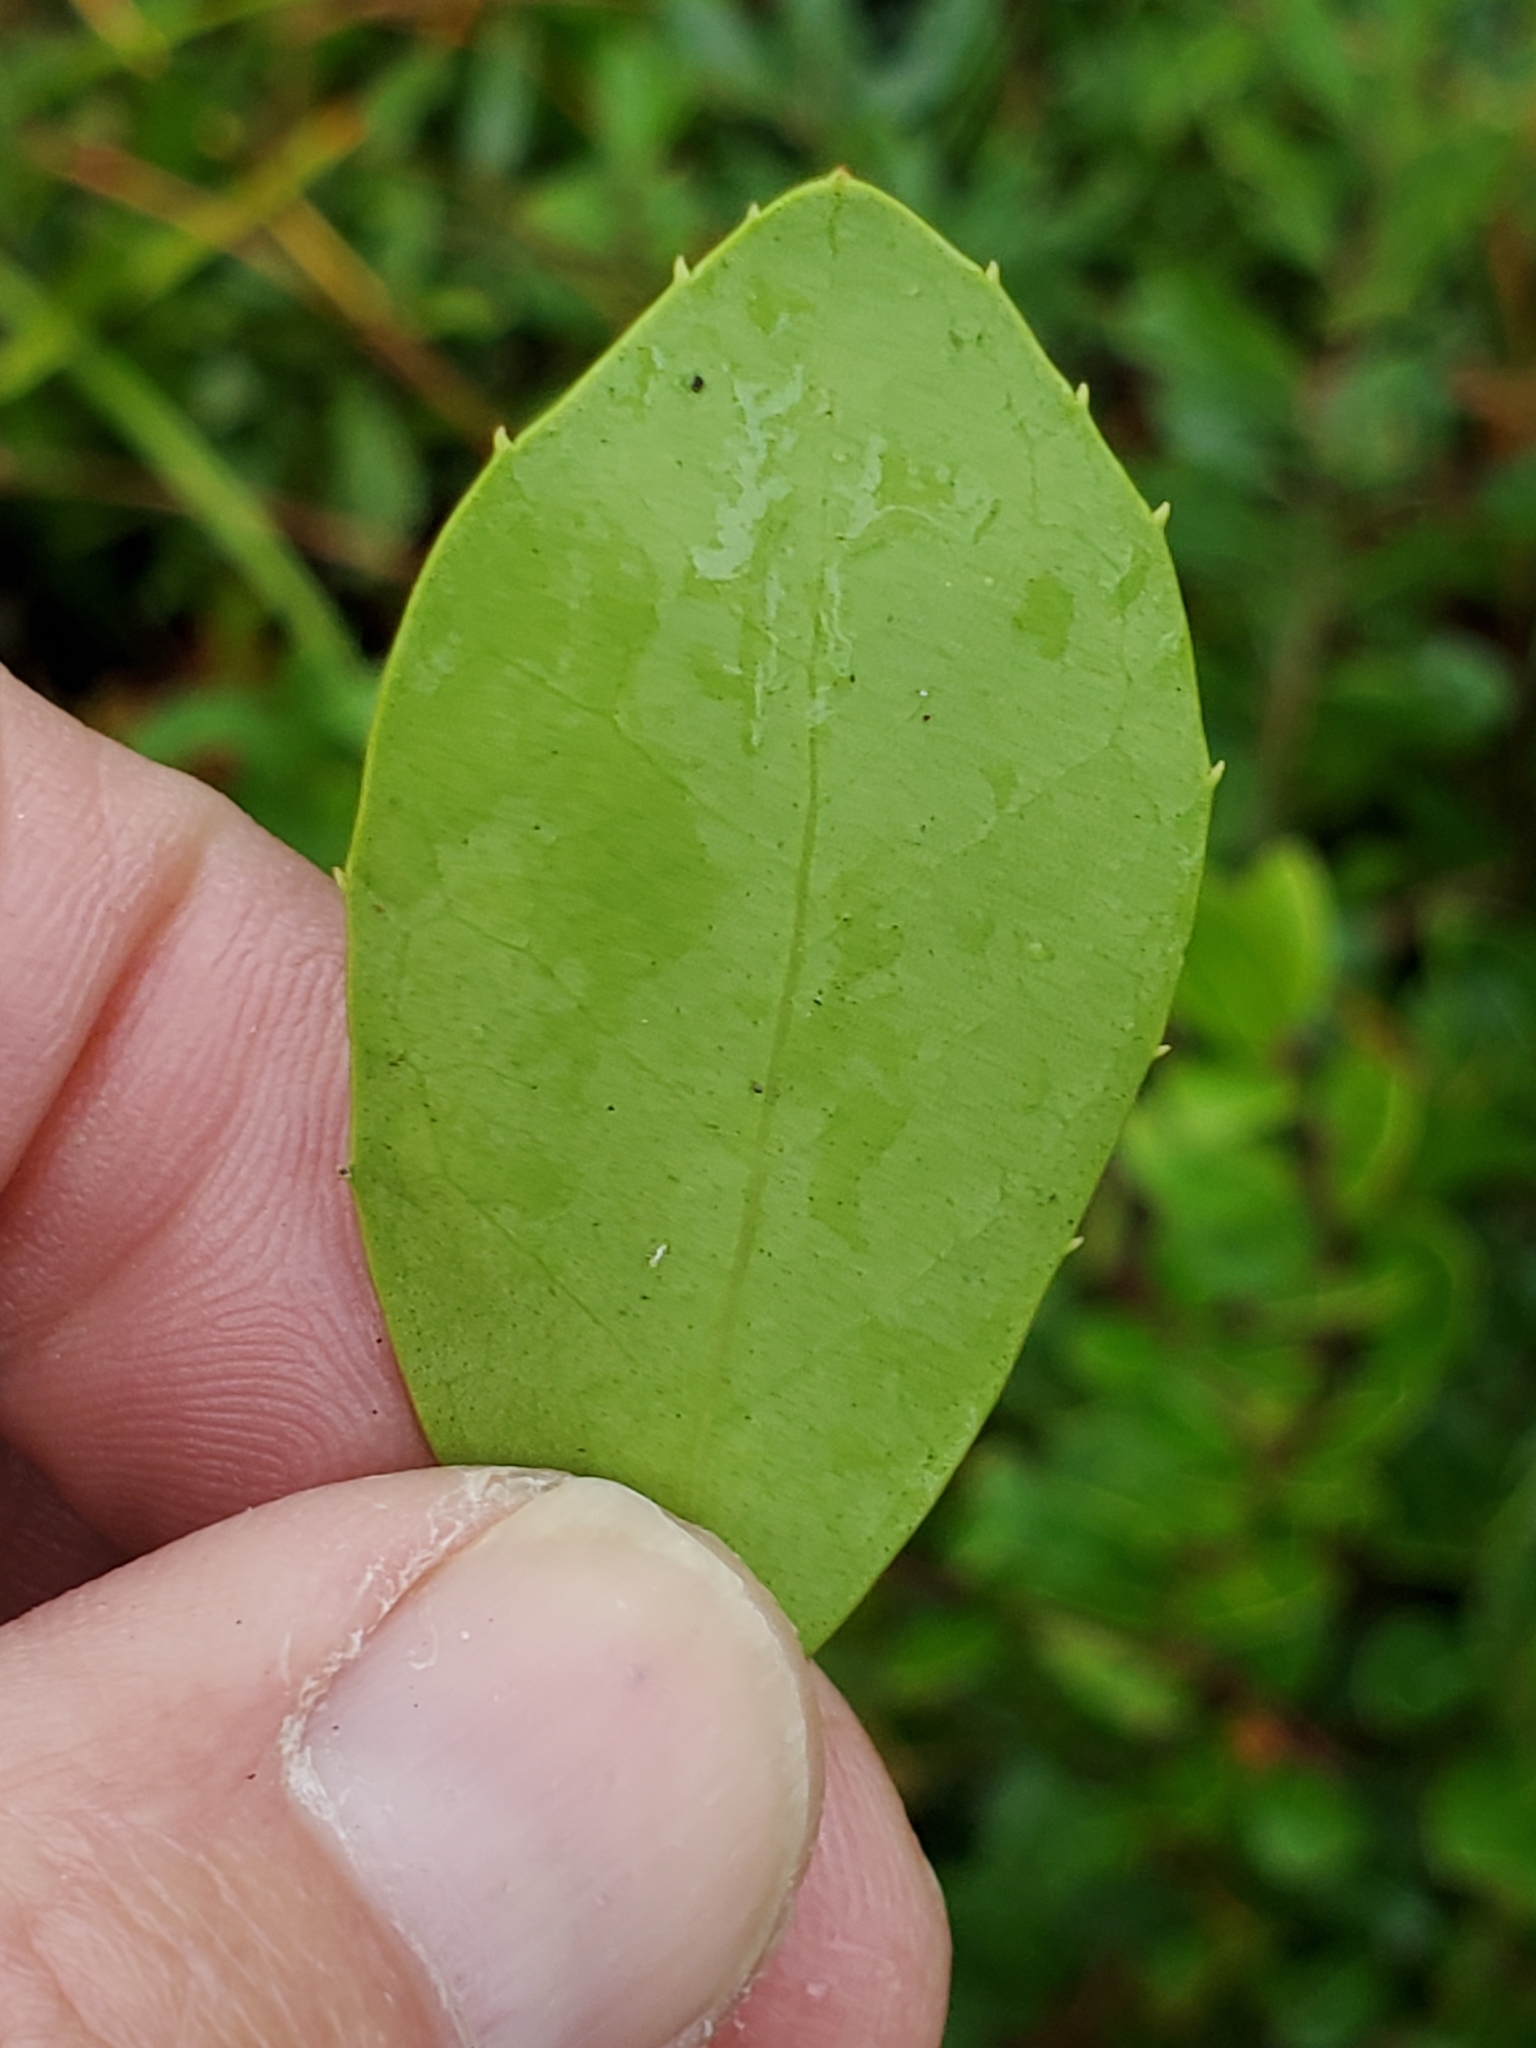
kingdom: Plantae
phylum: Tracheophyta
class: Magnoliopsida
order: Aquifoliales
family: Aquifoliaceae
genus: Ilex
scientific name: Ilex coriacea
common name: Sweet gallberry
